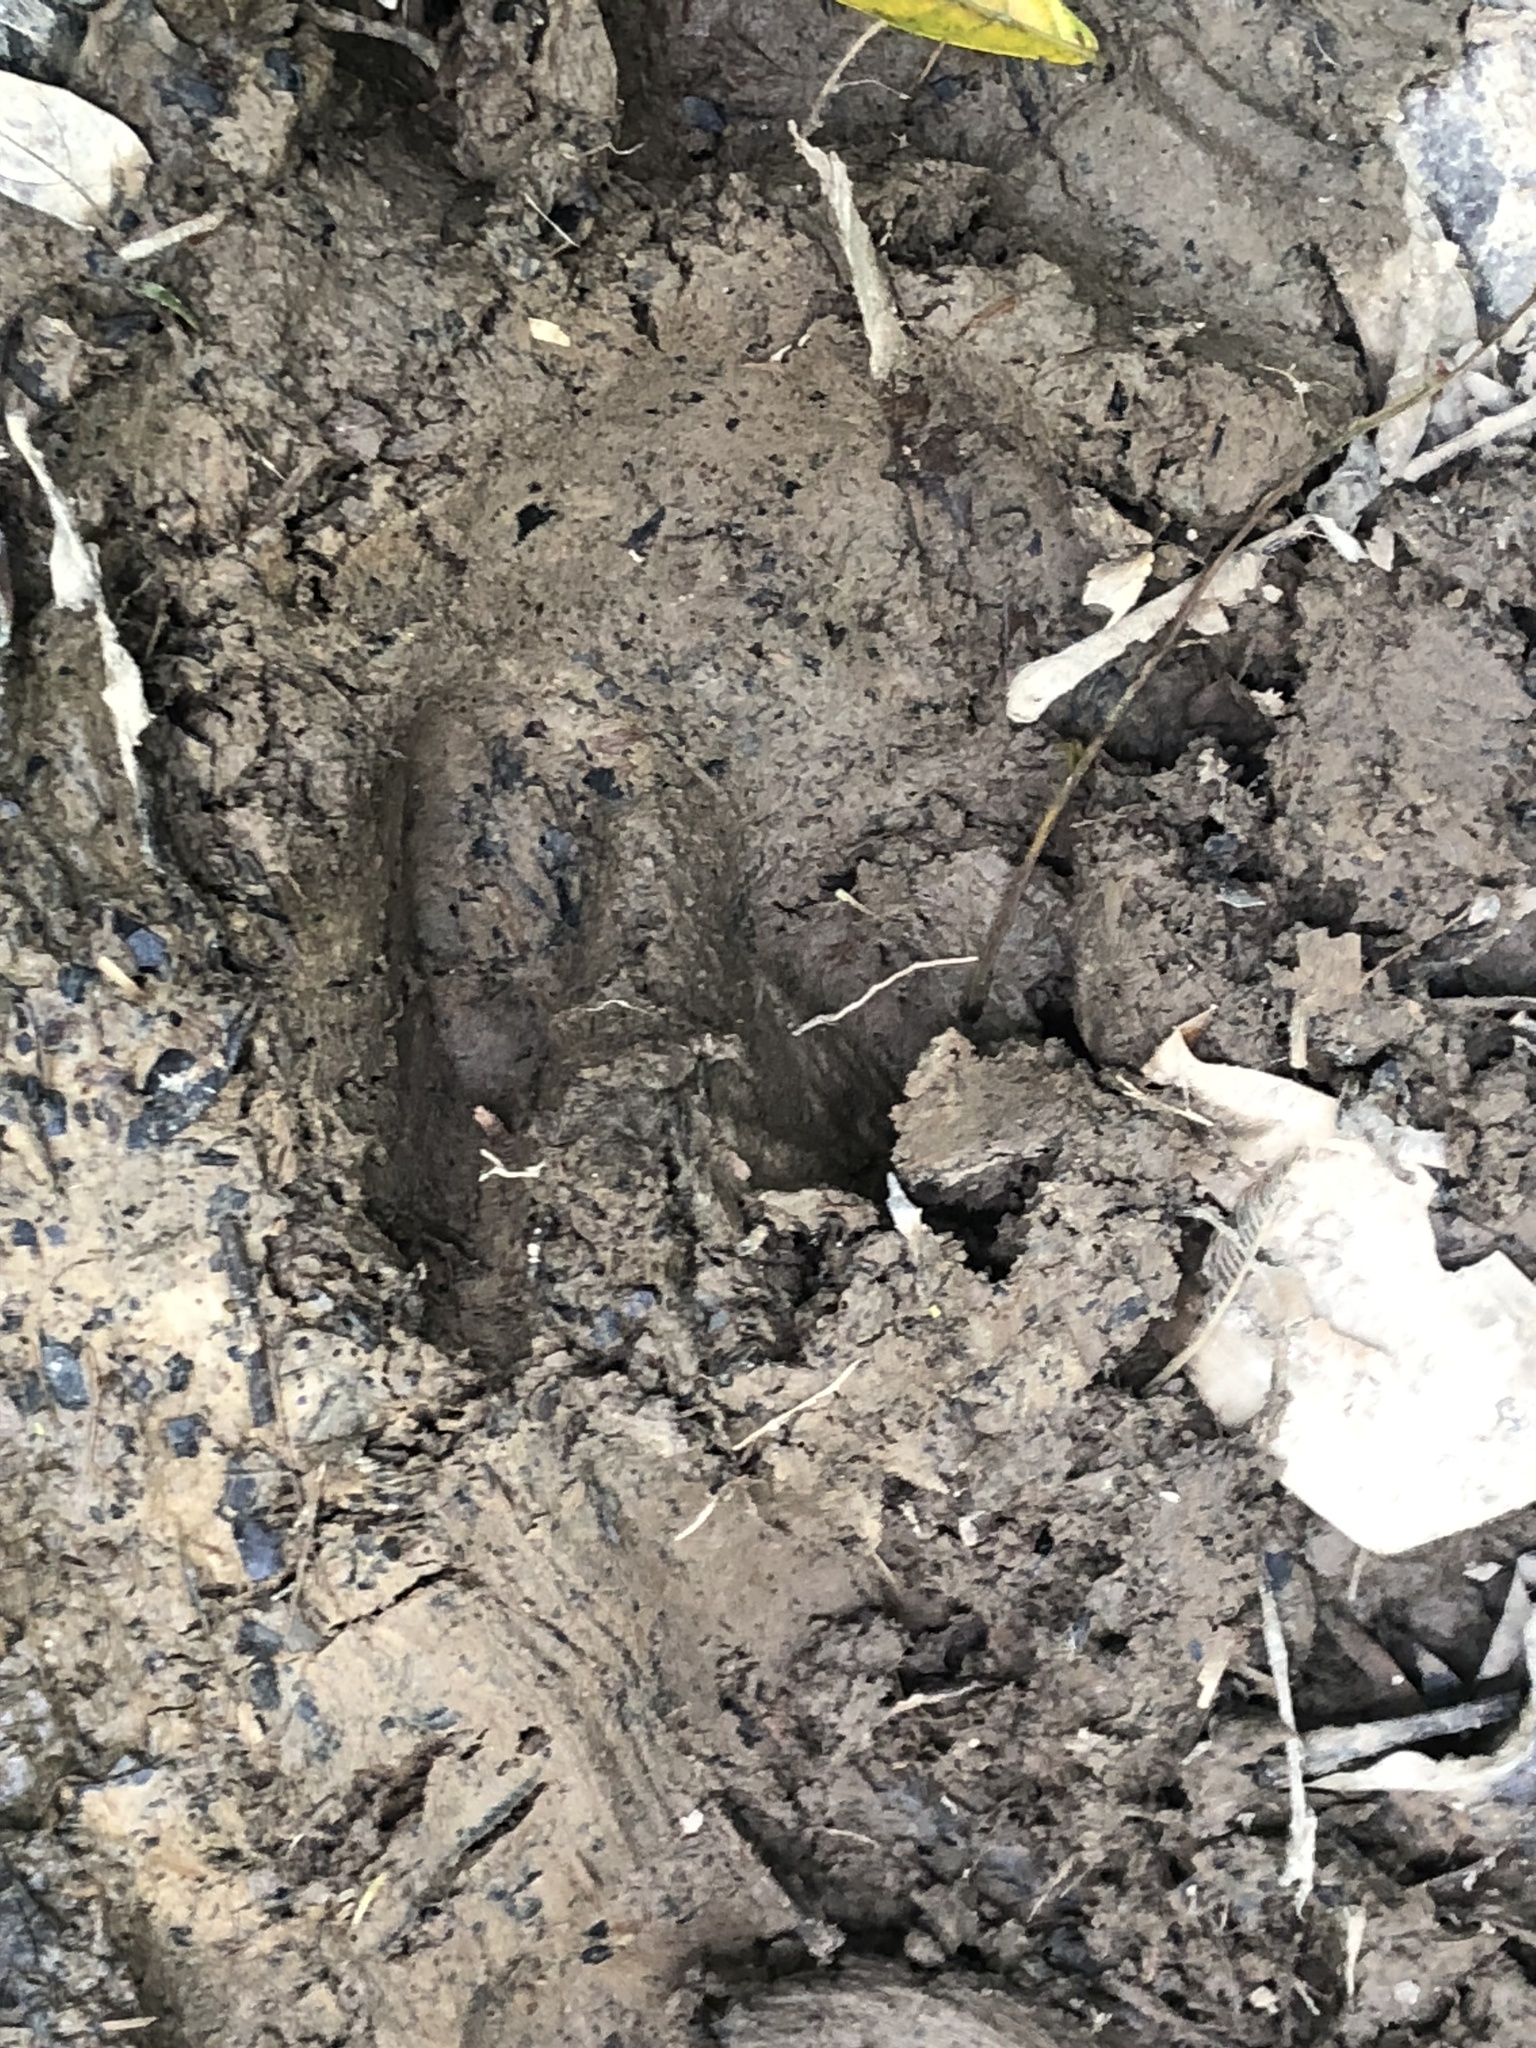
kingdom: Animalia
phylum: Chordata
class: Mammalia
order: Perissodactyla
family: Tapiridae
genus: Tapirus
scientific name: Tapirus terrestris
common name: Brazilian tapir
